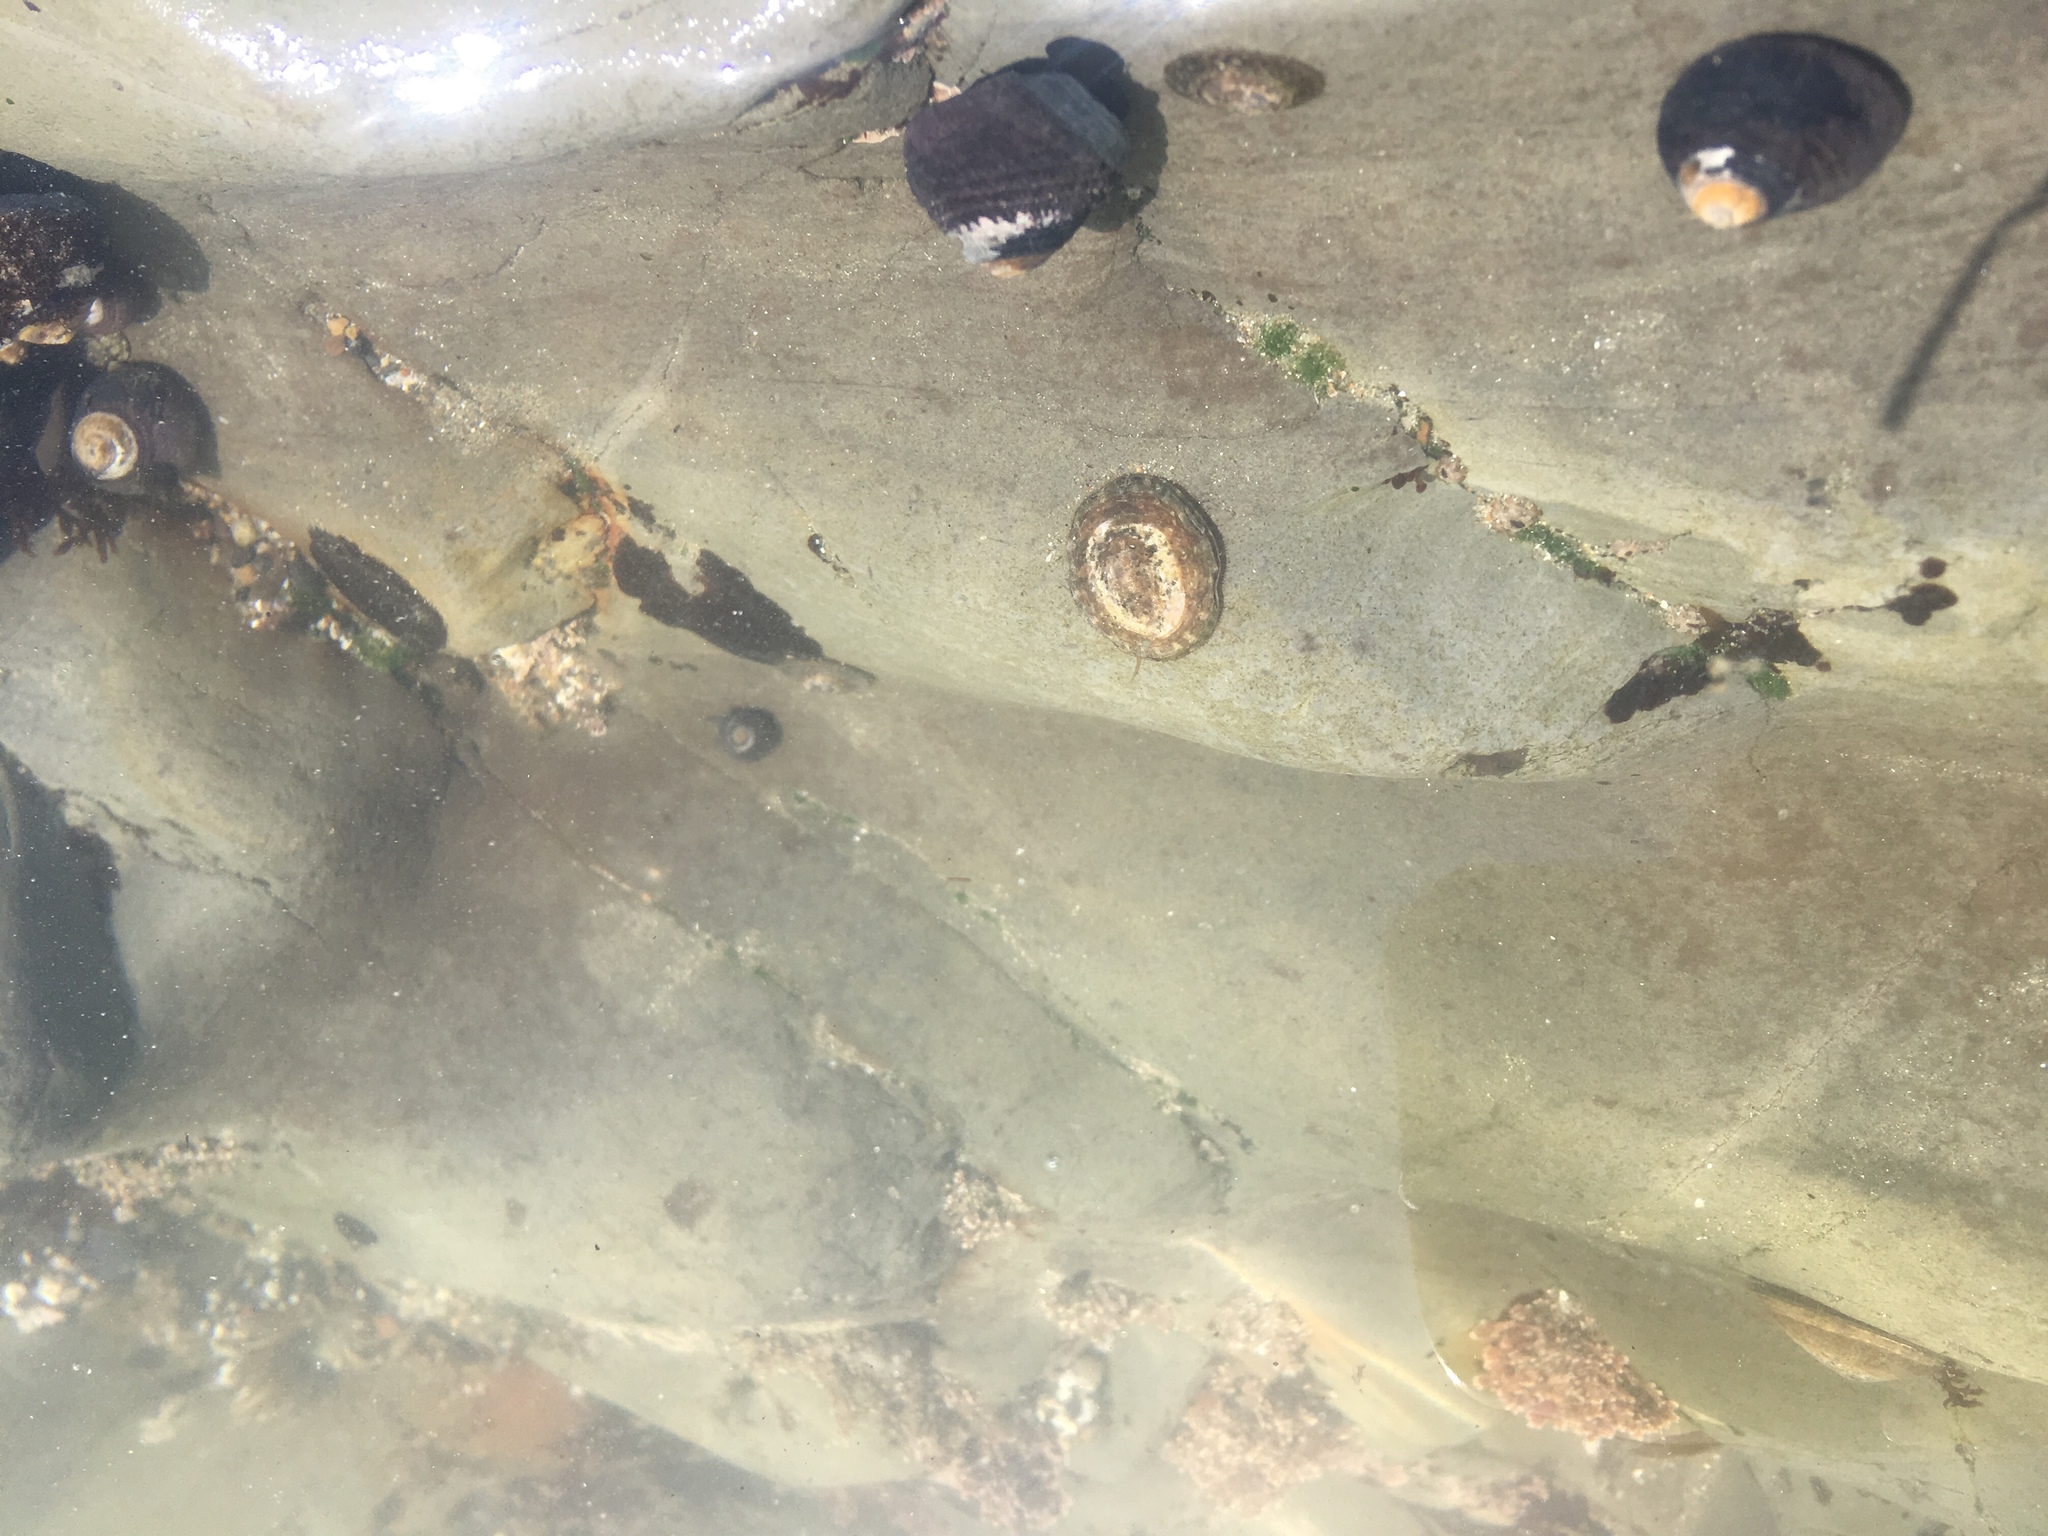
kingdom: Animalia
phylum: Mollusca
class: Gastropoda
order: Trochida
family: Tegulidae
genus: Tegula
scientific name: Tegula funebralis
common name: Black tegula
